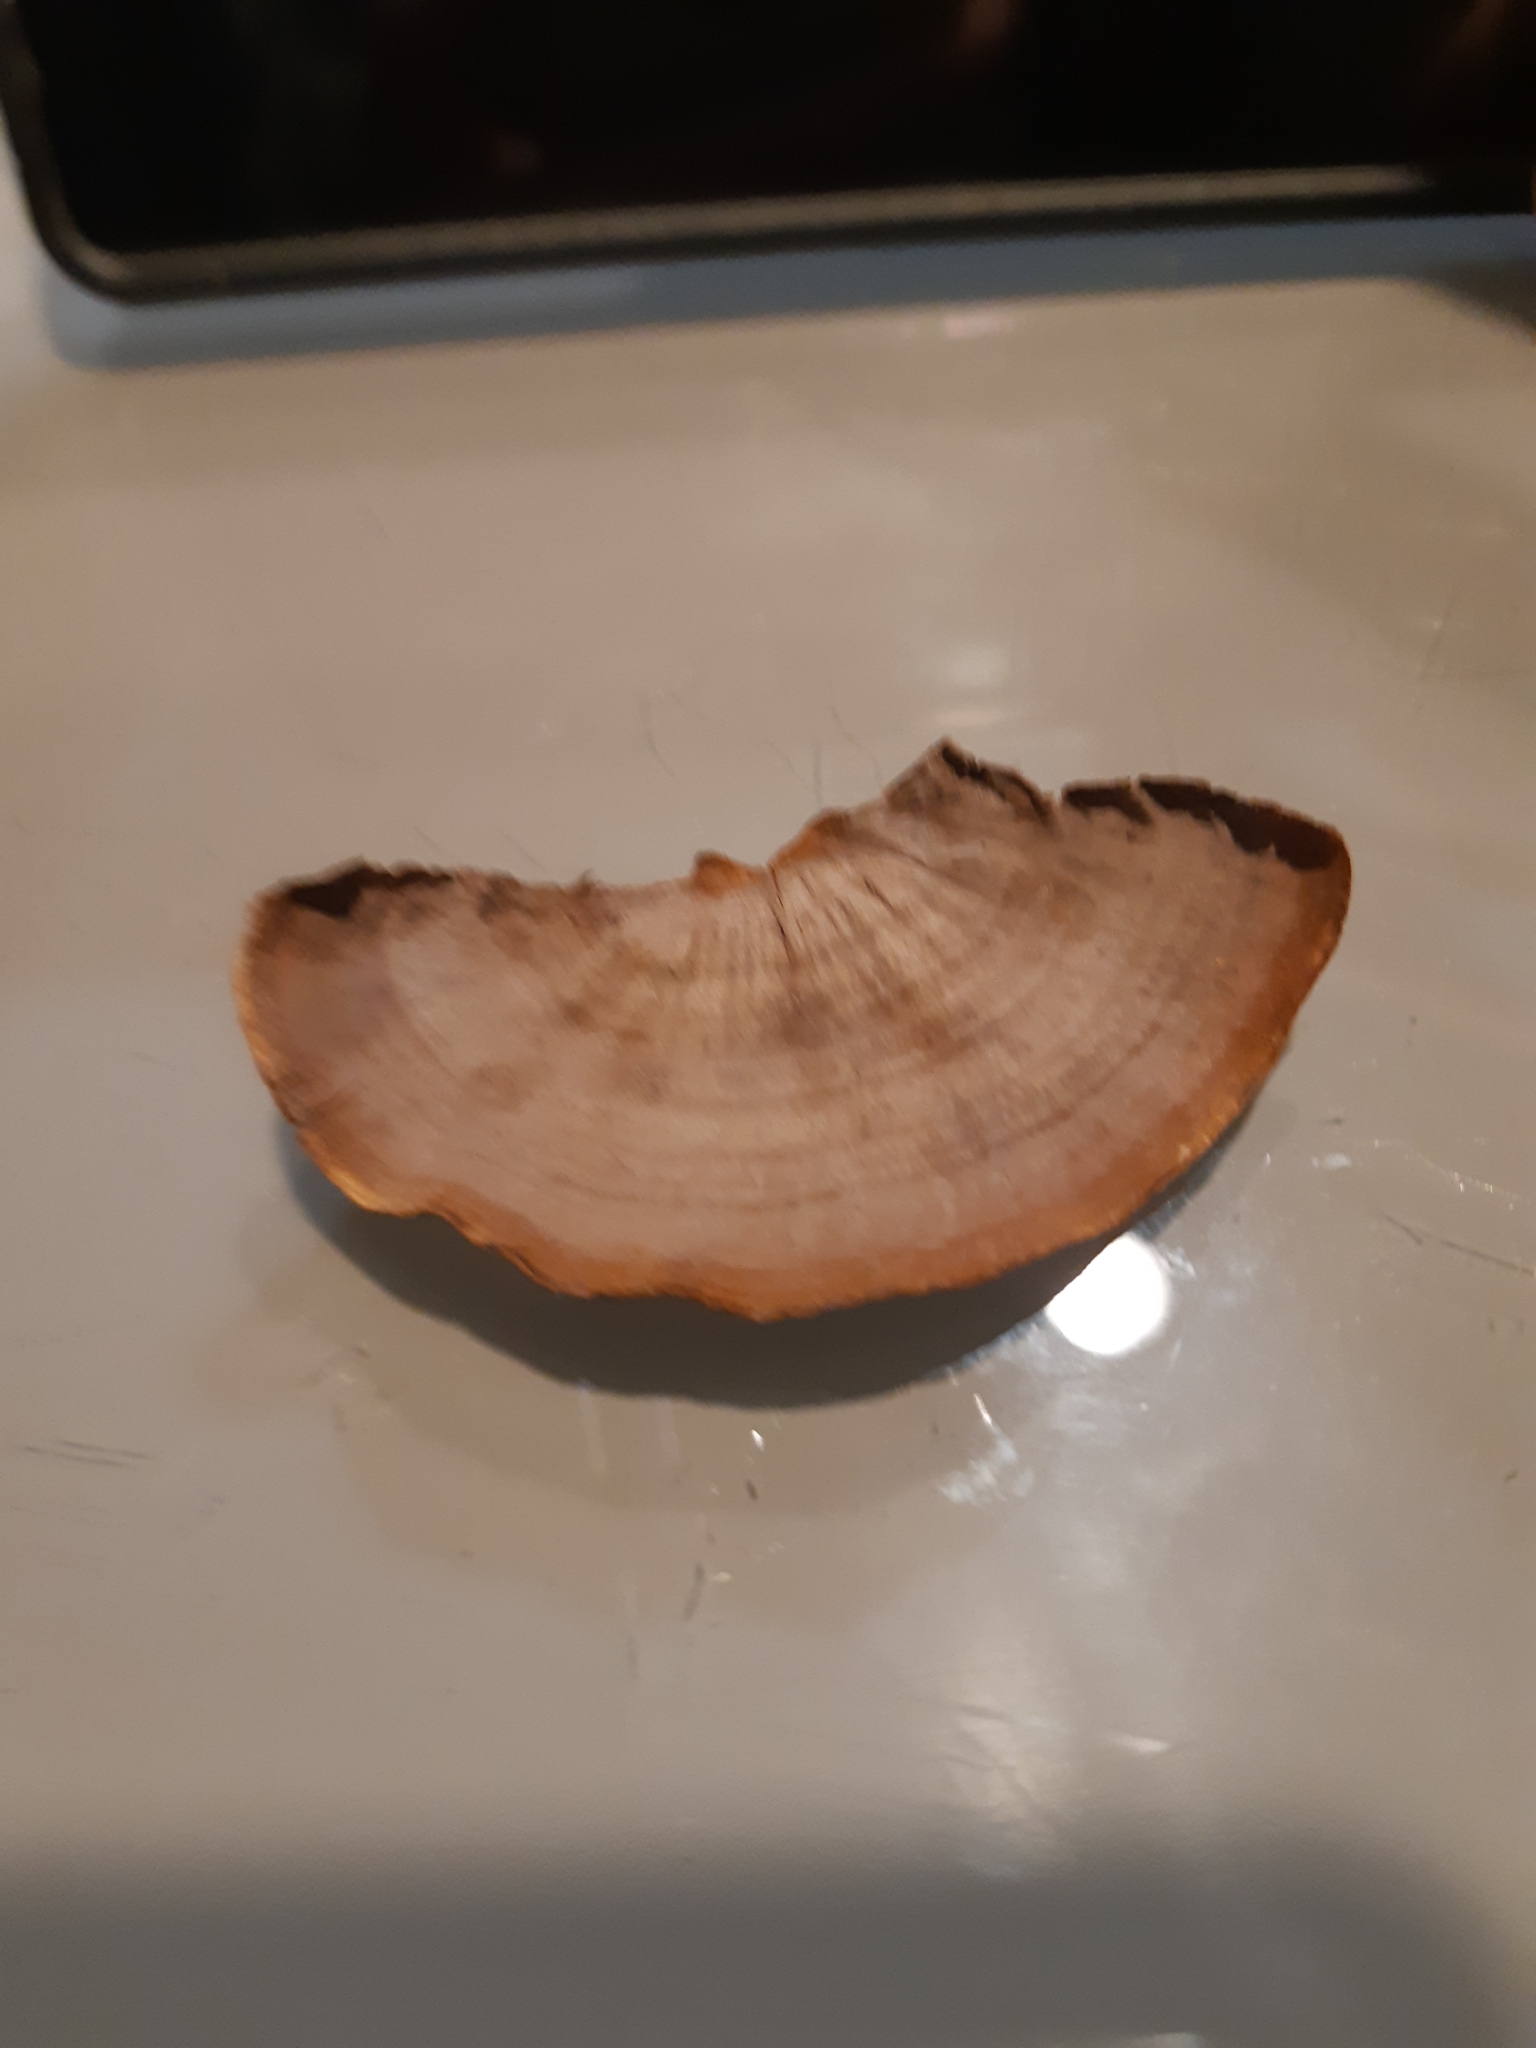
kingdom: Fungi
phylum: Basidiomycota
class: Agaricomycetes
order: Russulales
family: Stereaceae
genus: Xylobolus
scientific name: Xylobolus illudens
